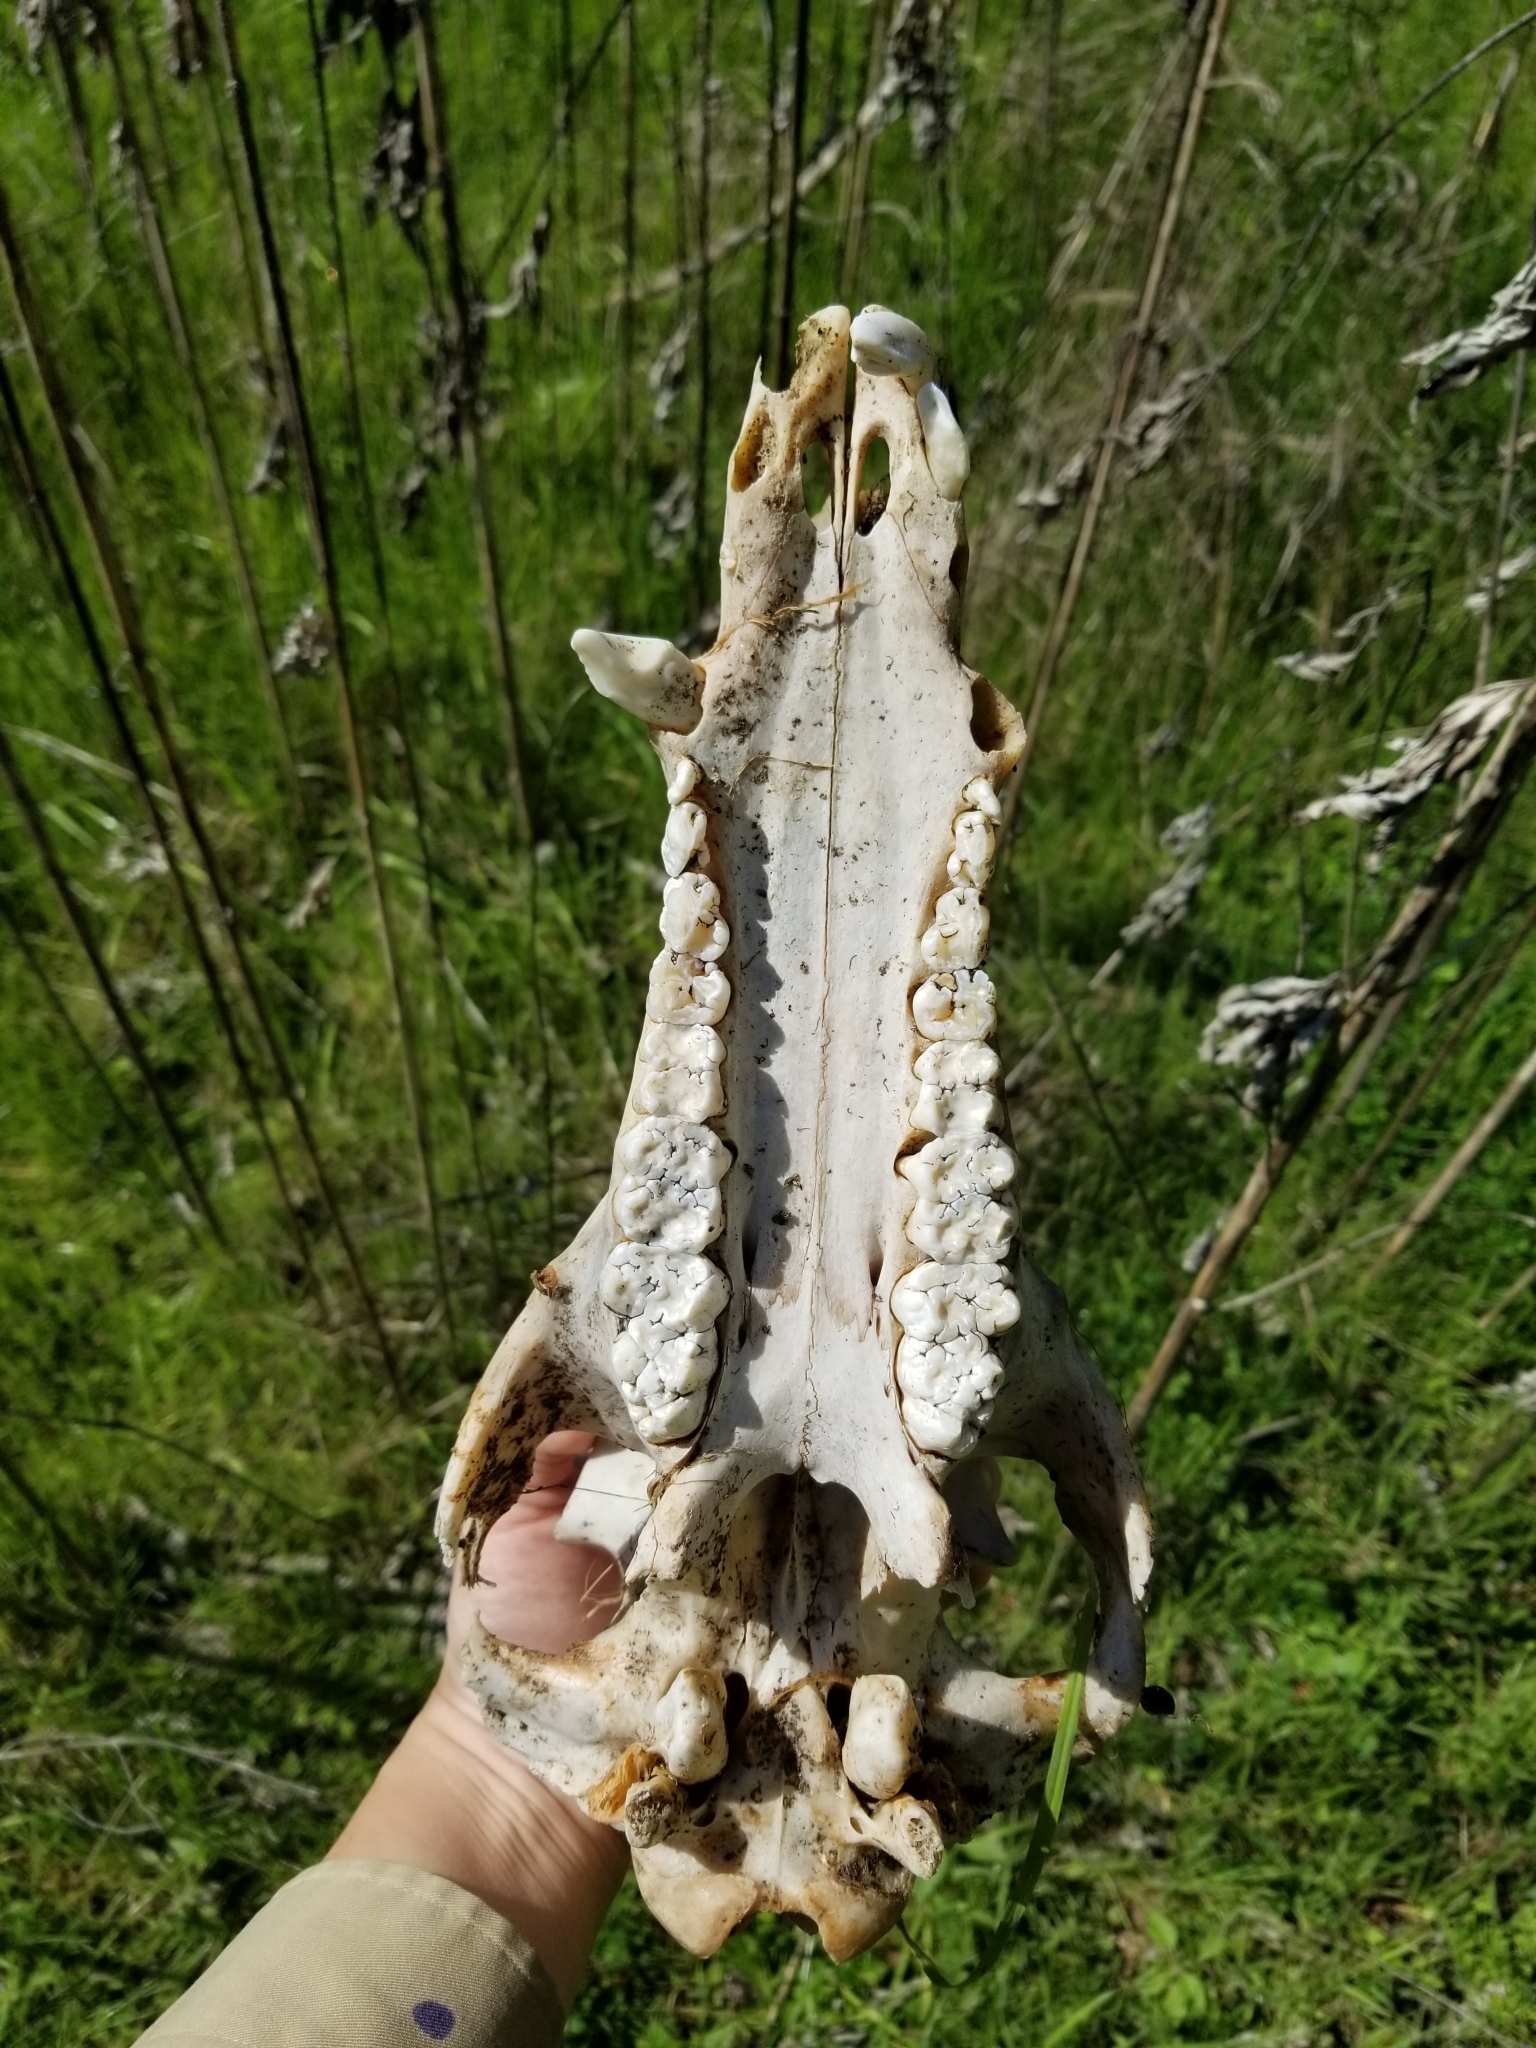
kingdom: Animalia
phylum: Chordata
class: Mammalia
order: Artiodactyla
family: Suidae
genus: Sus
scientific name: Sus scrofa
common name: Wild boar
